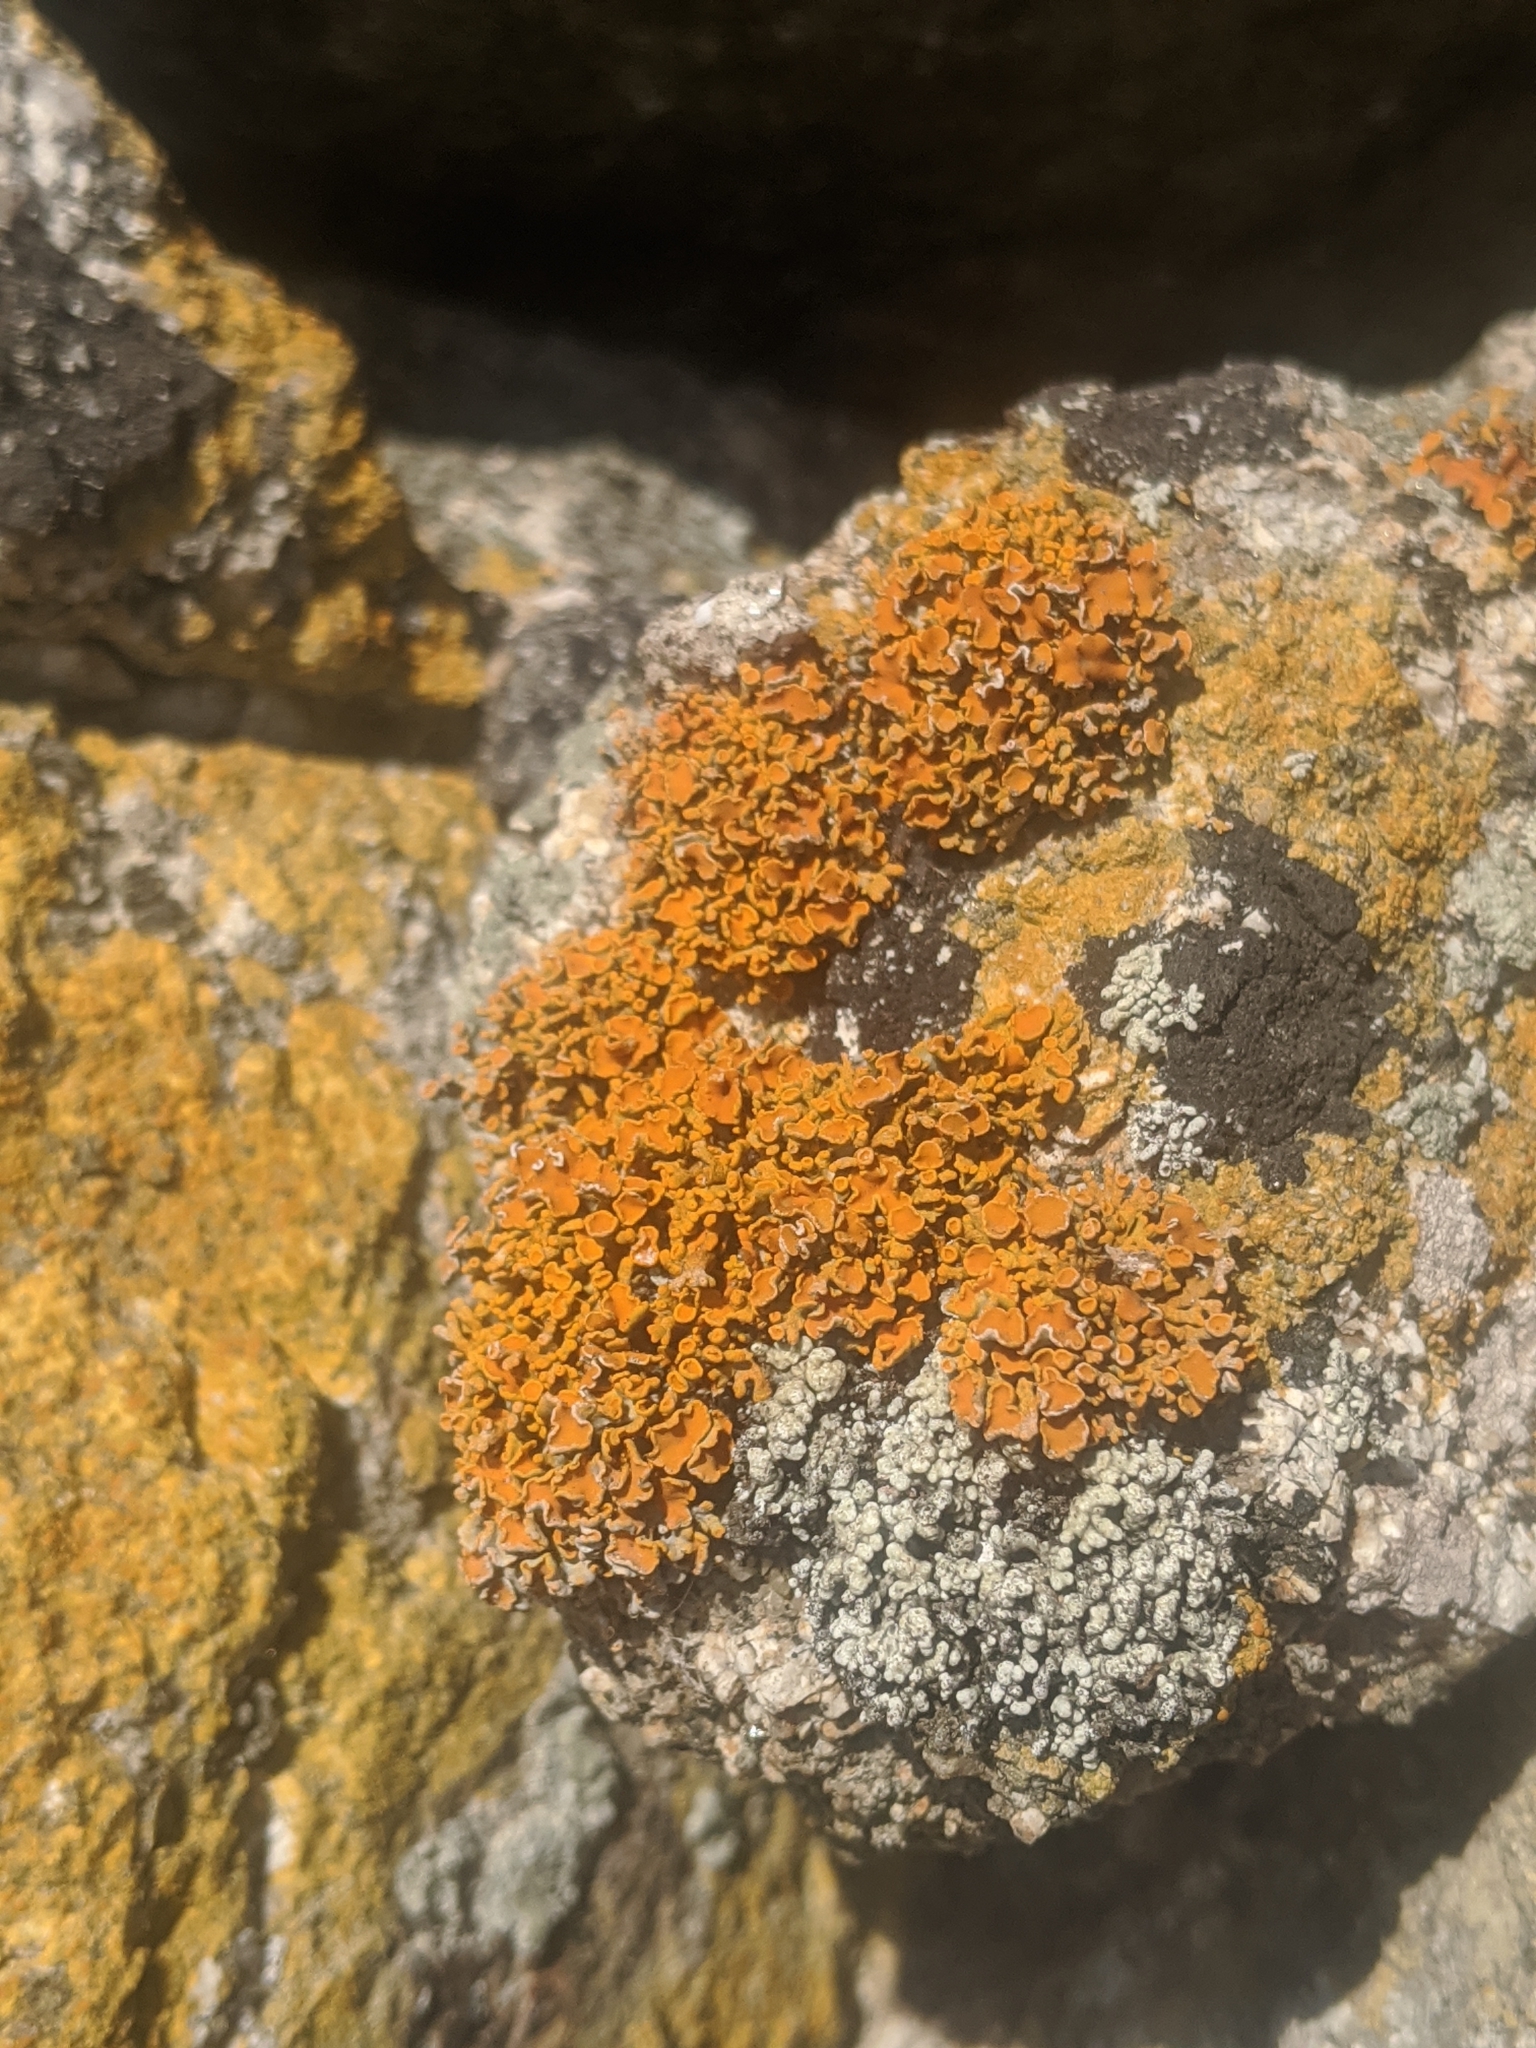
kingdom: Fungi
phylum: Ascomycota
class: Lecanoromycetes
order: Lecanorales
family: Lecanoraceae
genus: Edrudia
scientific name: Edrudia constipans
